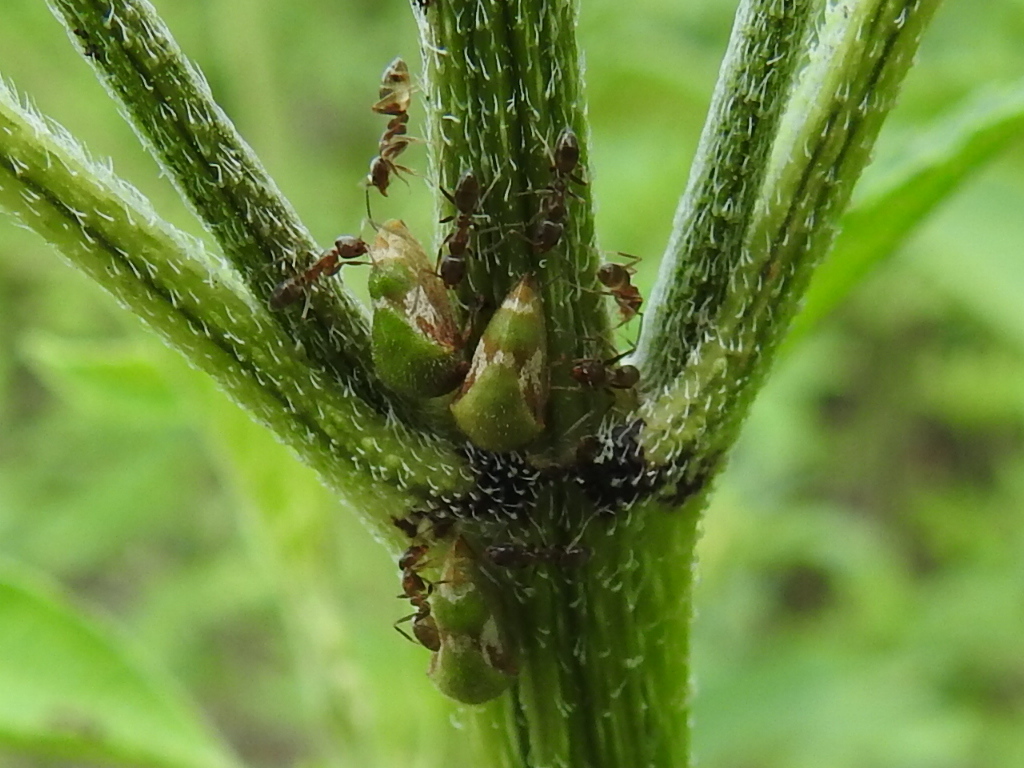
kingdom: Animalia
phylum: Arthropoda
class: Insecta
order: Hemiptera
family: Membracidae
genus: Vanduzea
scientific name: Vanduzea segmentata
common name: Membracid bug
